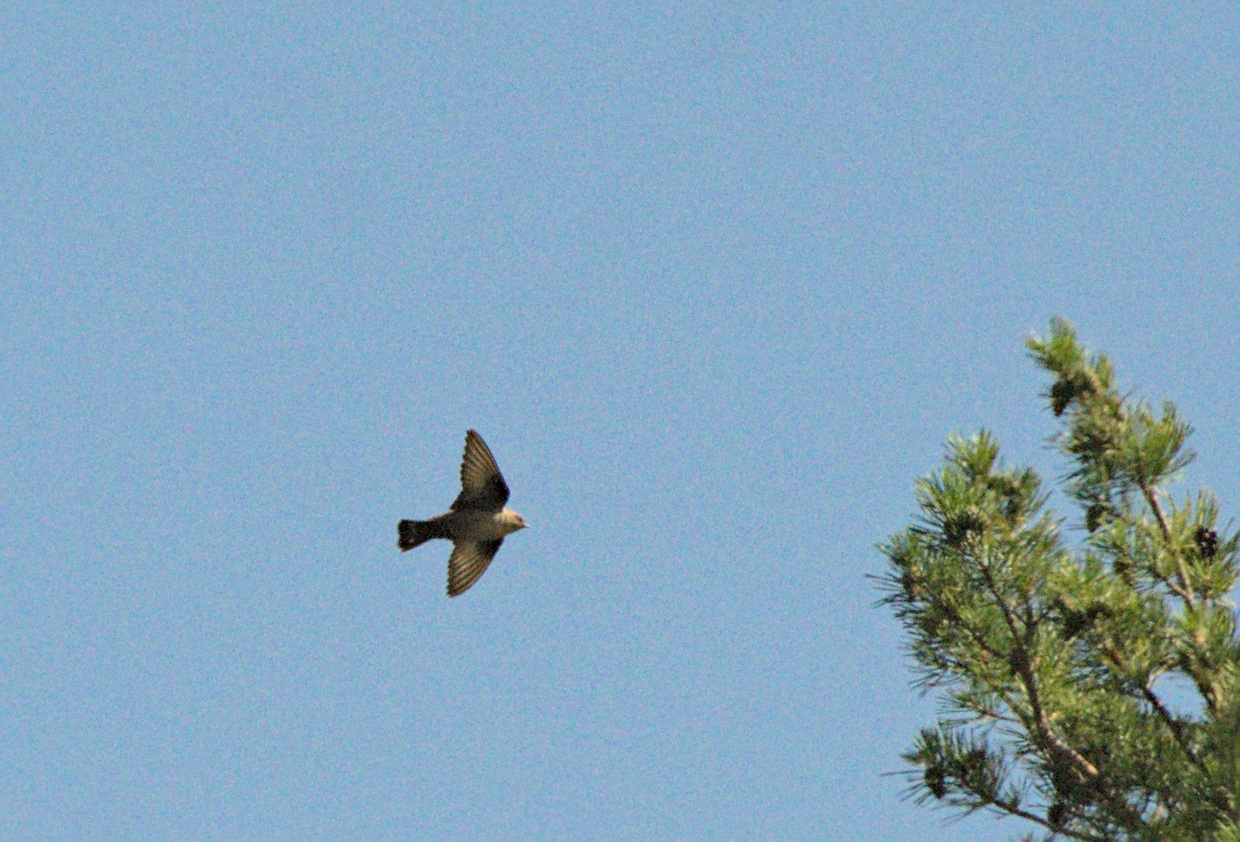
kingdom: Animalia
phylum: Chordata
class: Aves
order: Passeriformes
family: Hirundinidae
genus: Ptyonoprogne
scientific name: Ptyonoprogne rupestris
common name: Eurasian crag martin
